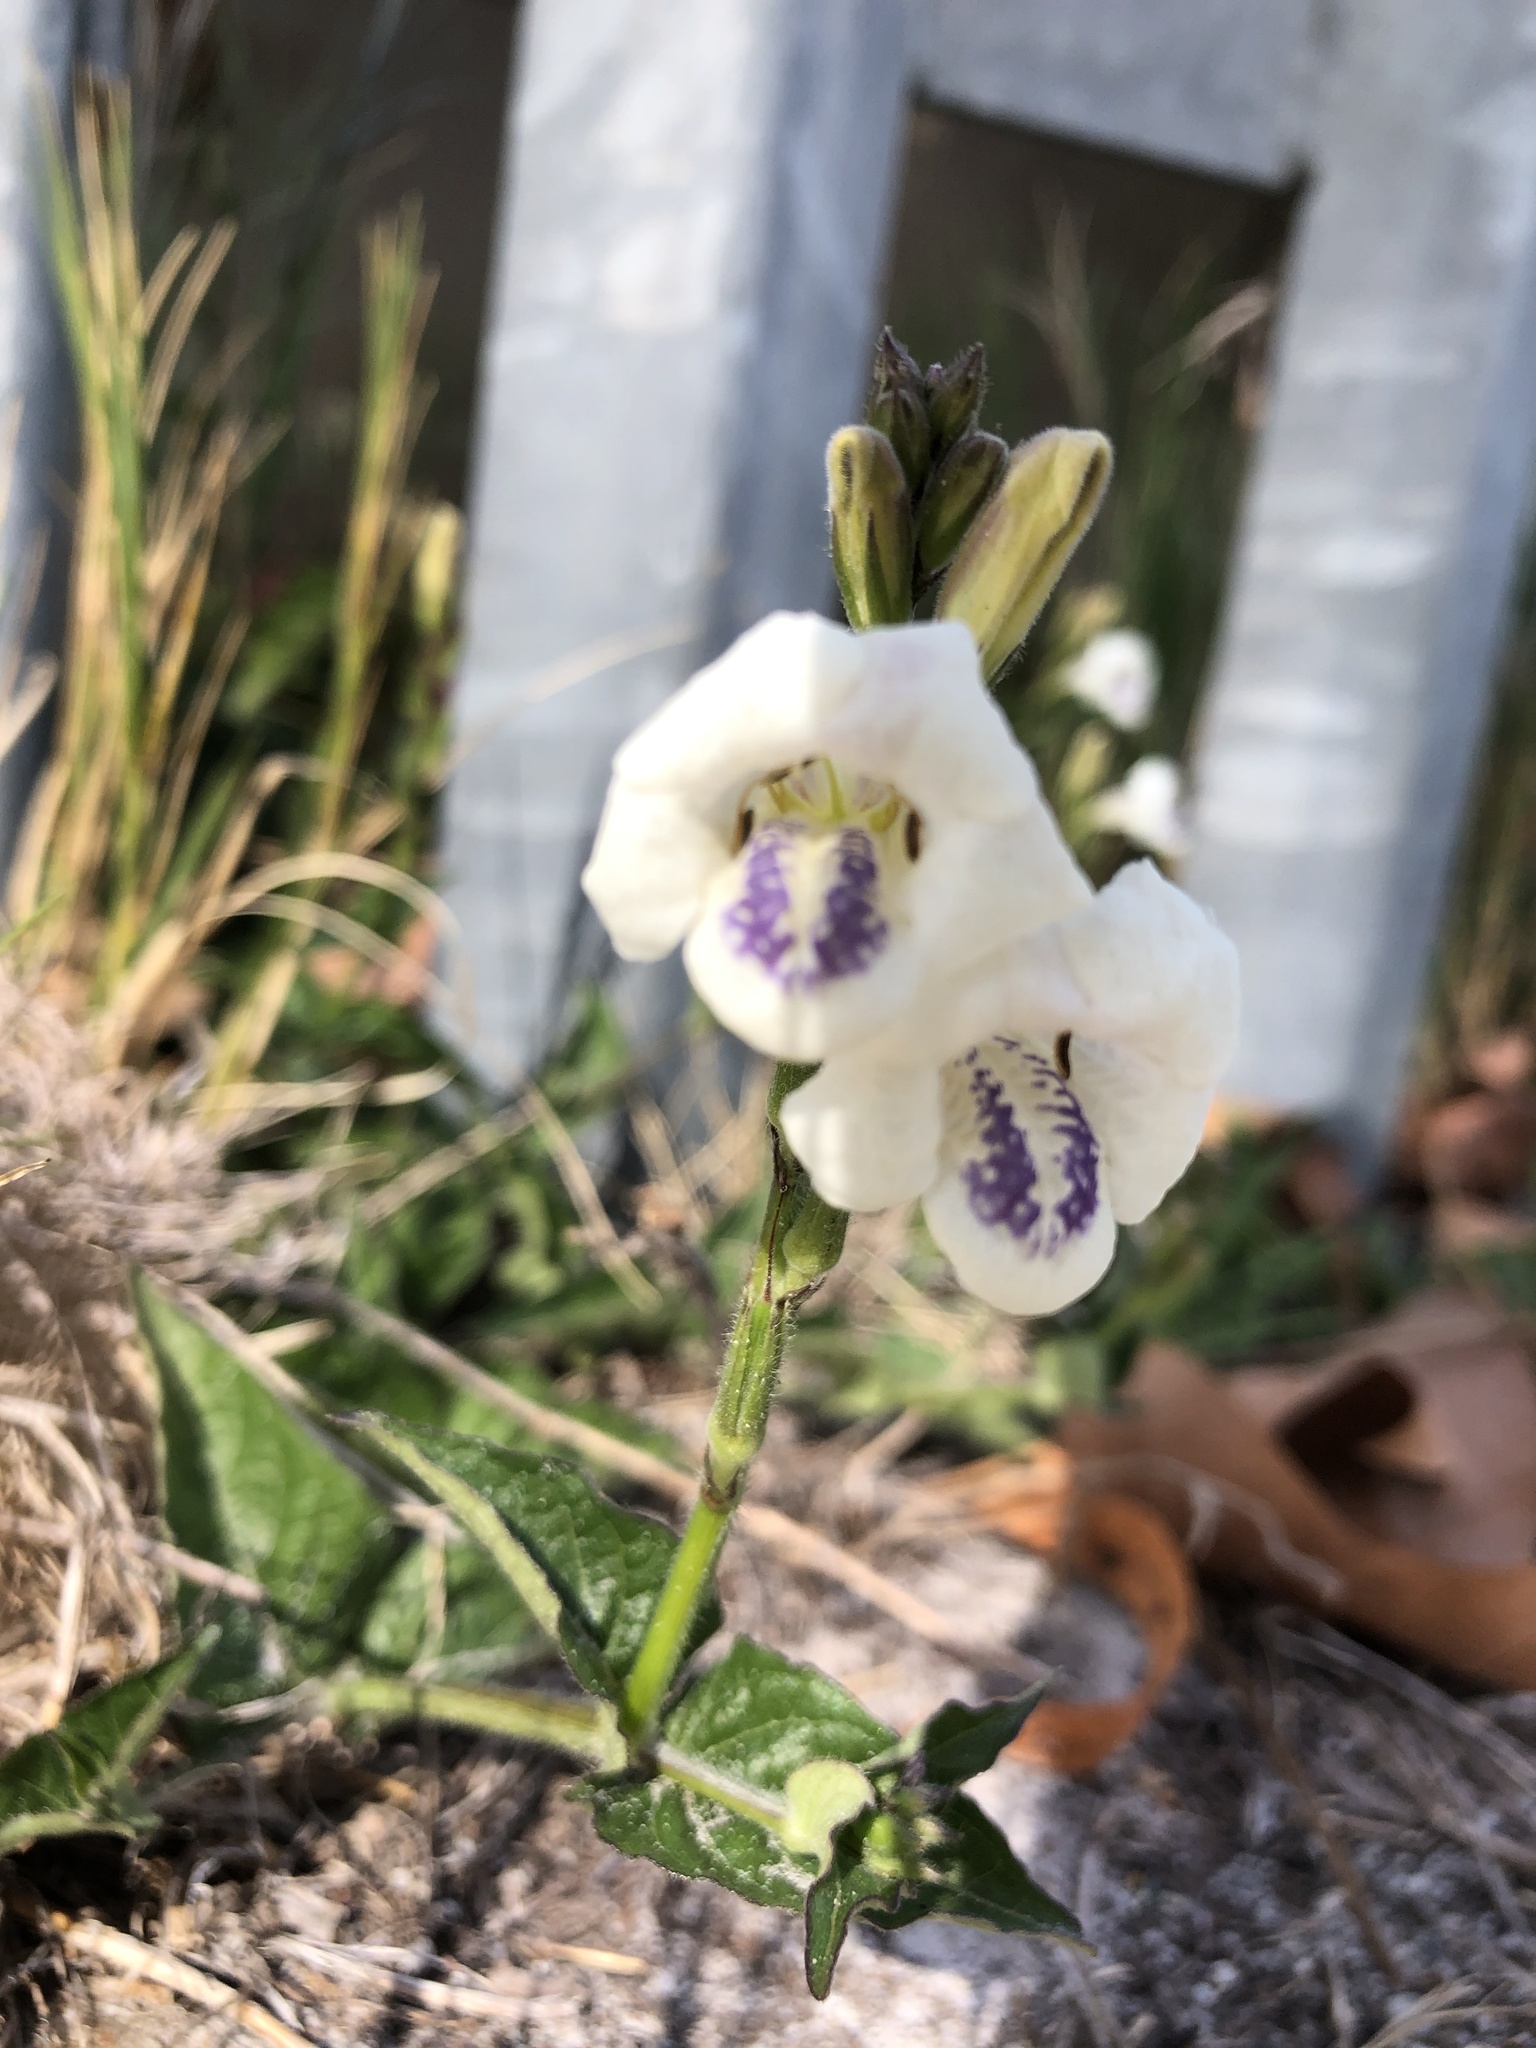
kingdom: Plantae
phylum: Tracheophyta
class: Magnoliopsida
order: Lamiales
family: Acanthaceae
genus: Asystasia
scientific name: Asystasia intrusa
